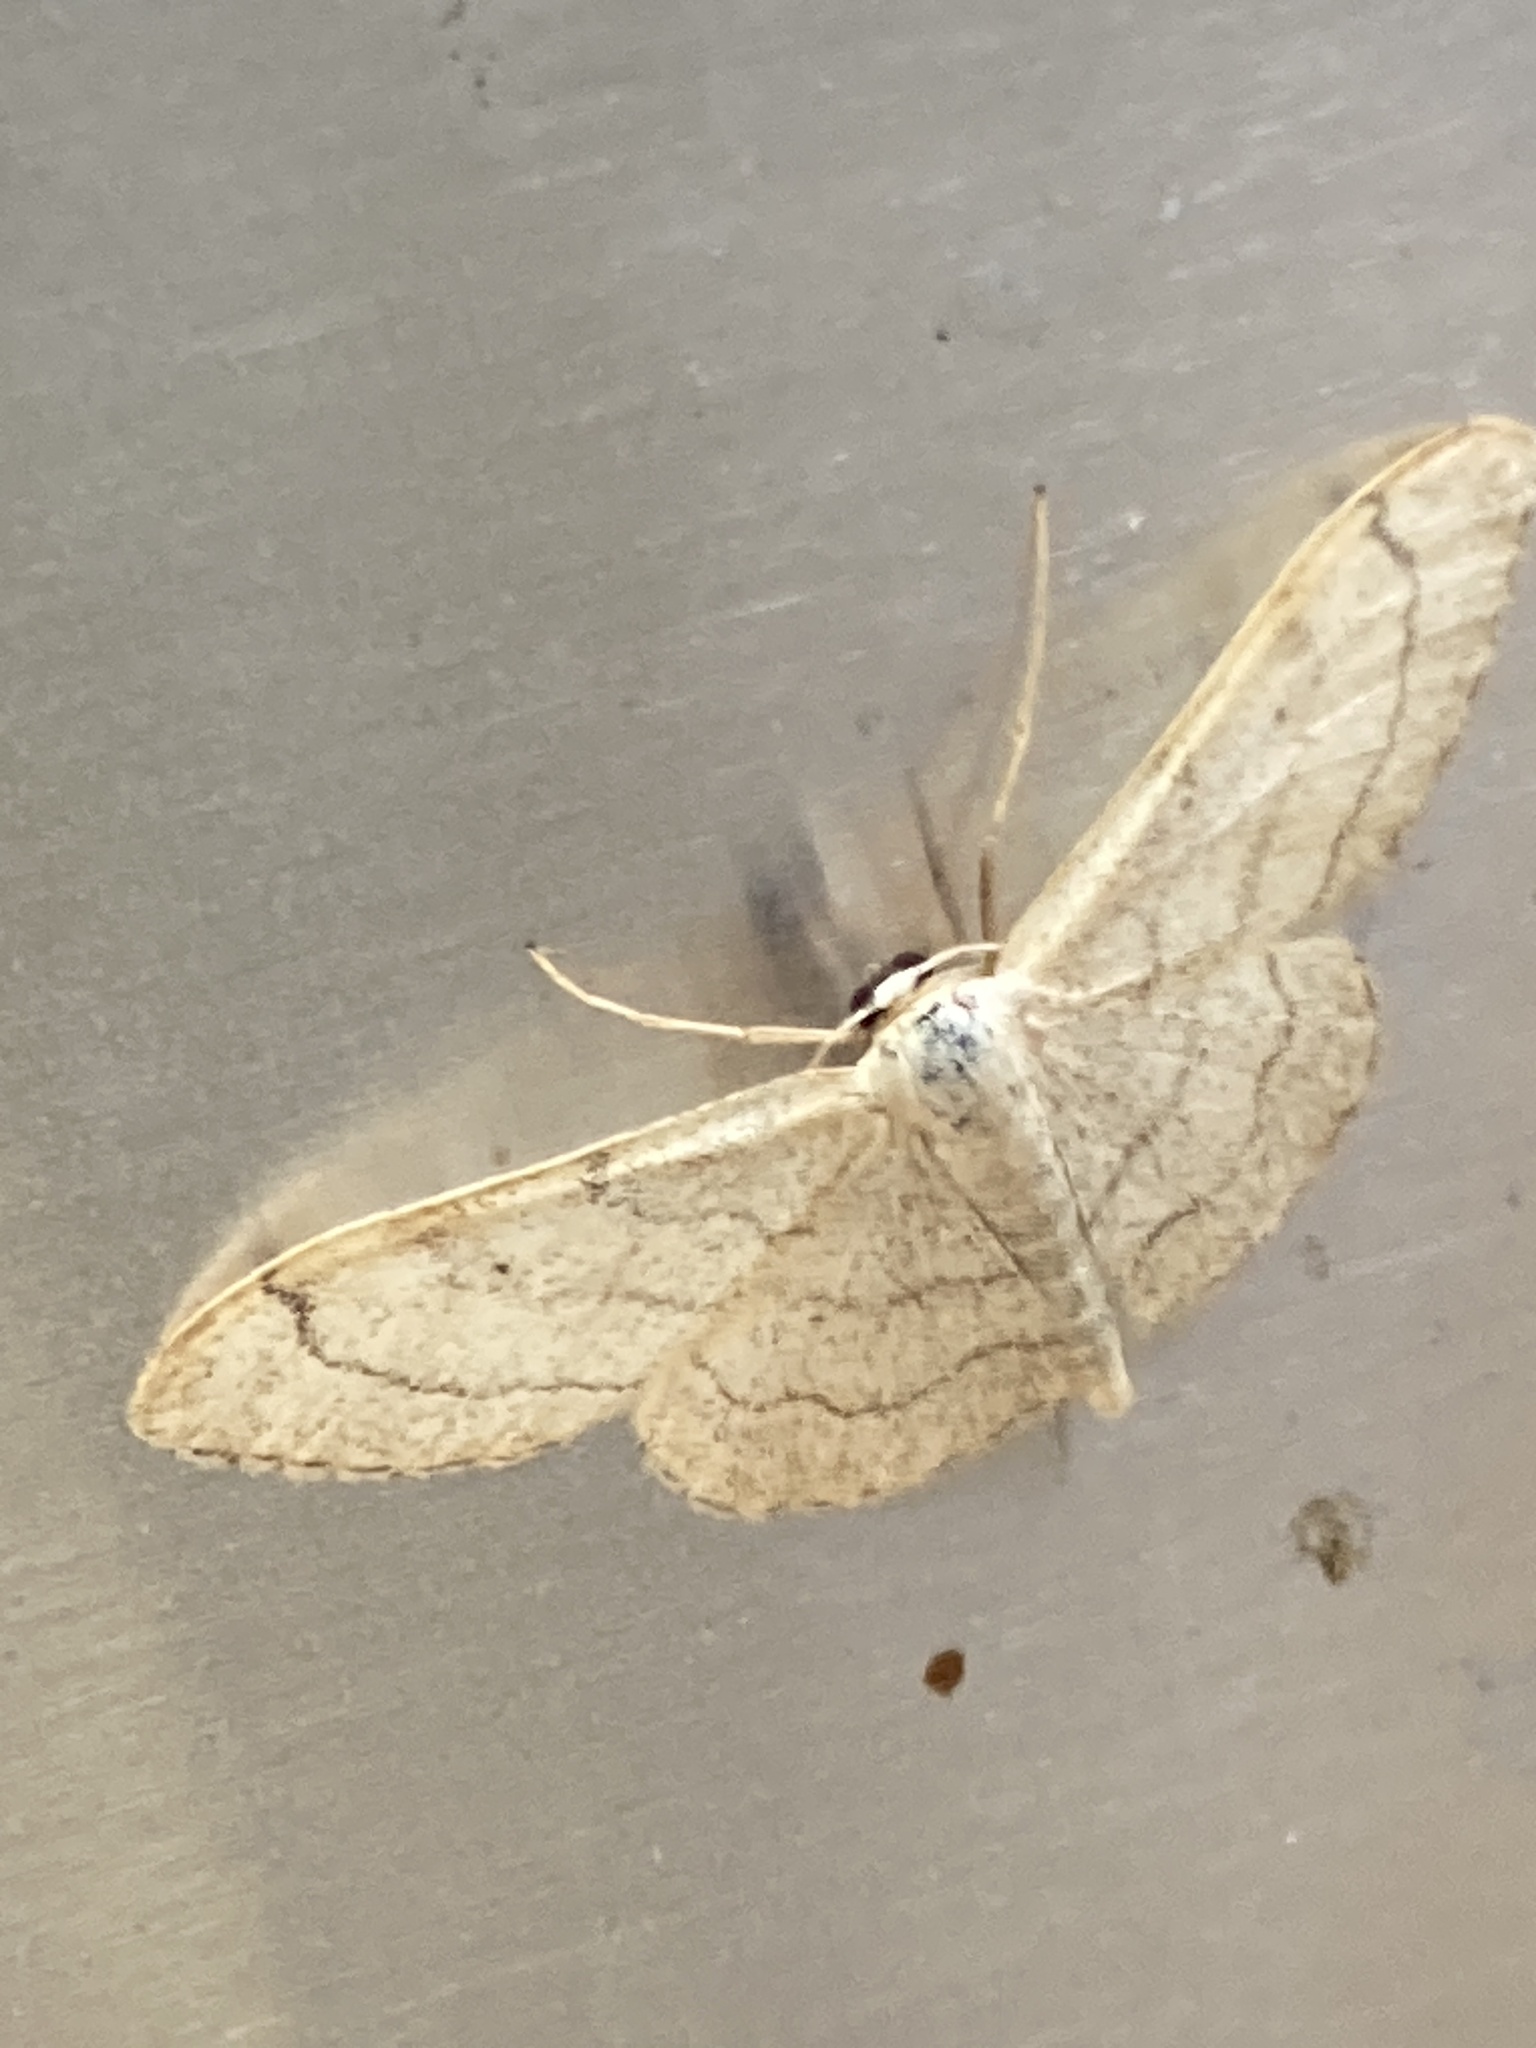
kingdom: Animalia
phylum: Arthropoda
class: Insecta
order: Lepidoptera
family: Geometridae
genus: Idaea
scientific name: Idaea aversata
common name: Riband wave
